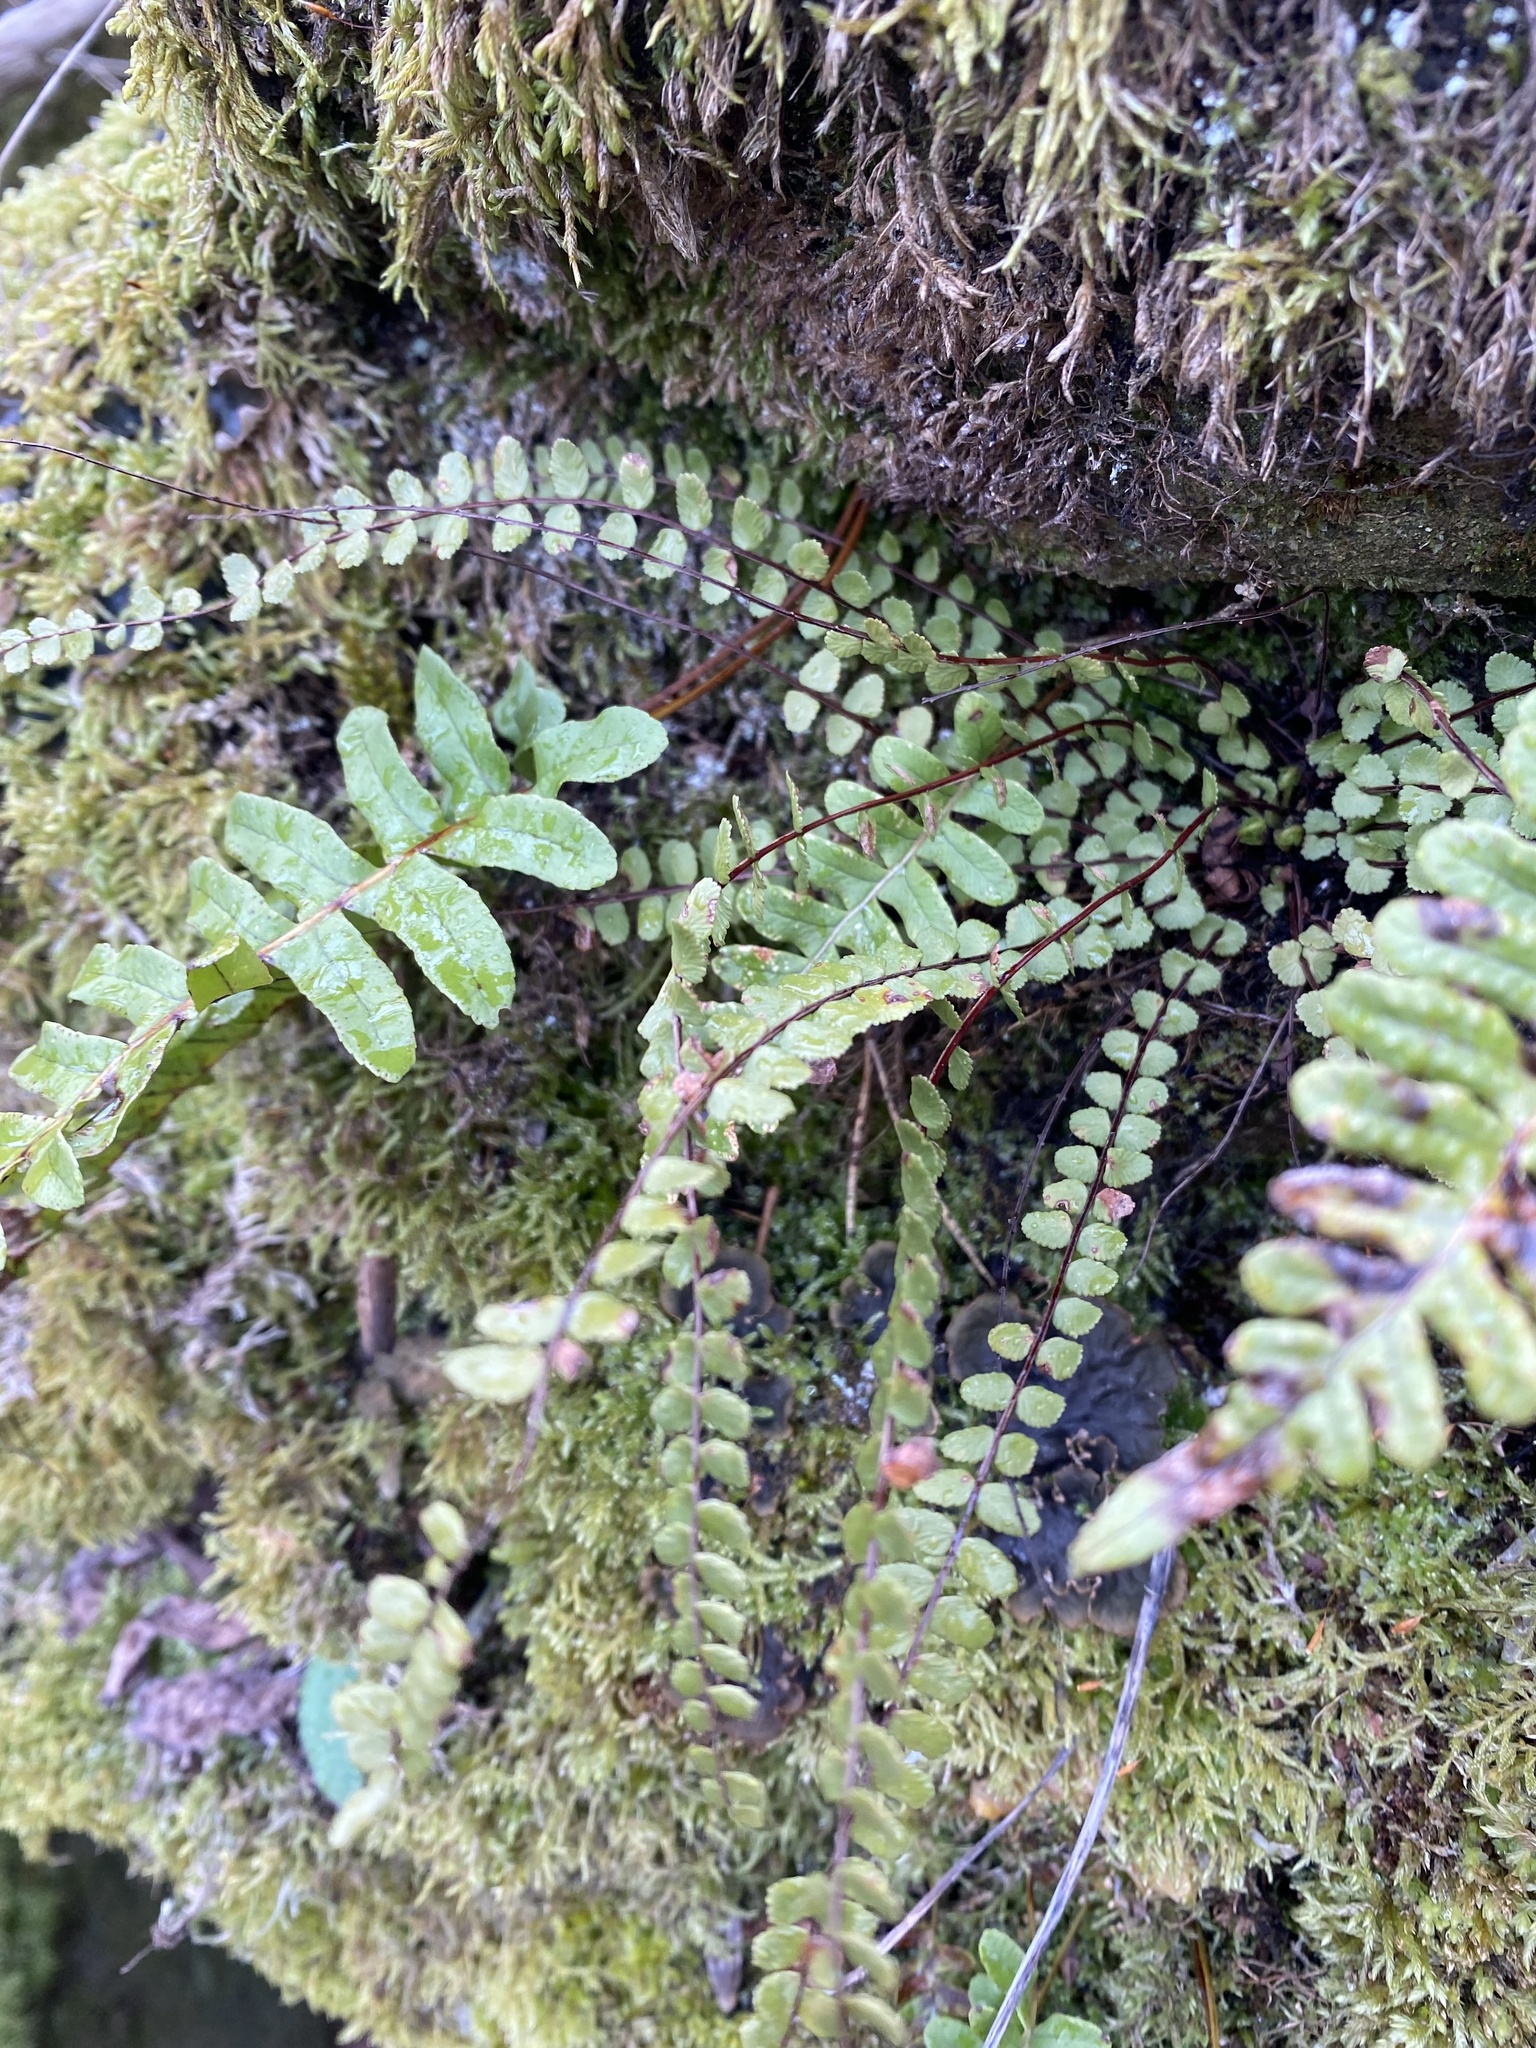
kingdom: Plantae
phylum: Tracheophyta
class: Polypodiopsida
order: Polypodiales
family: Aspleniaceae
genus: Asplenium
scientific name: Asplenium trichomanes
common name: Maidenhair spleenwort
